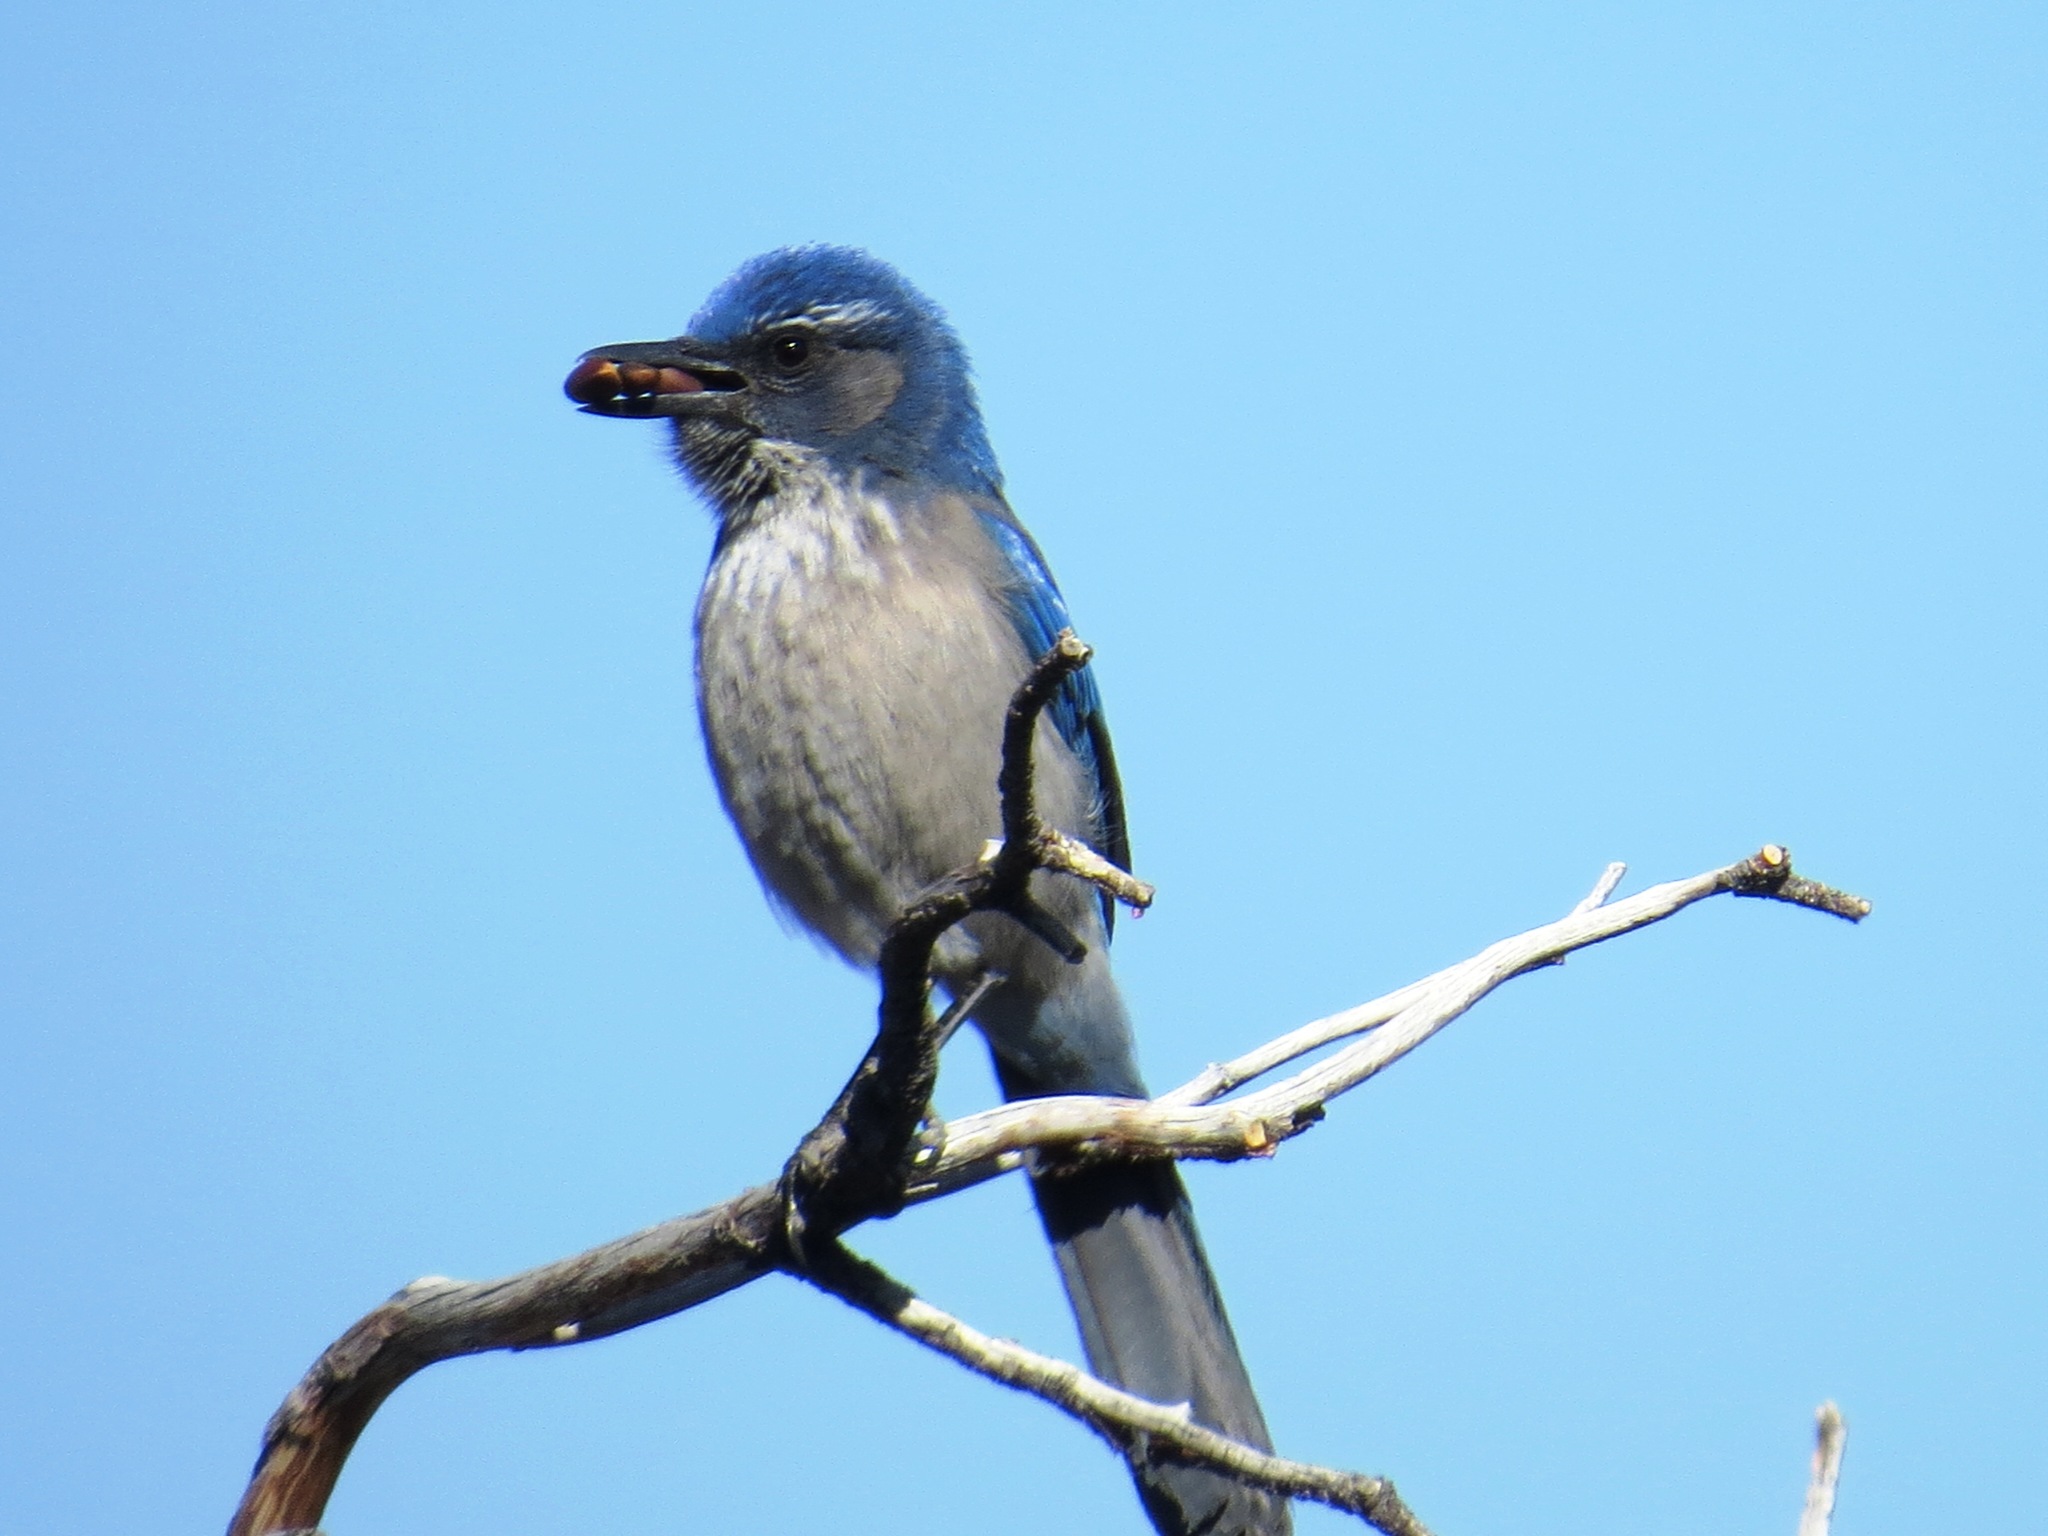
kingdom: Animalia
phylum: Chordata
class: Aves
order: Passeriformes
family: Corvidae
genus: Aphelocoma
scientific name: Aphelocoma woodhouseii
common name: Woodhouse's scrub-jay
